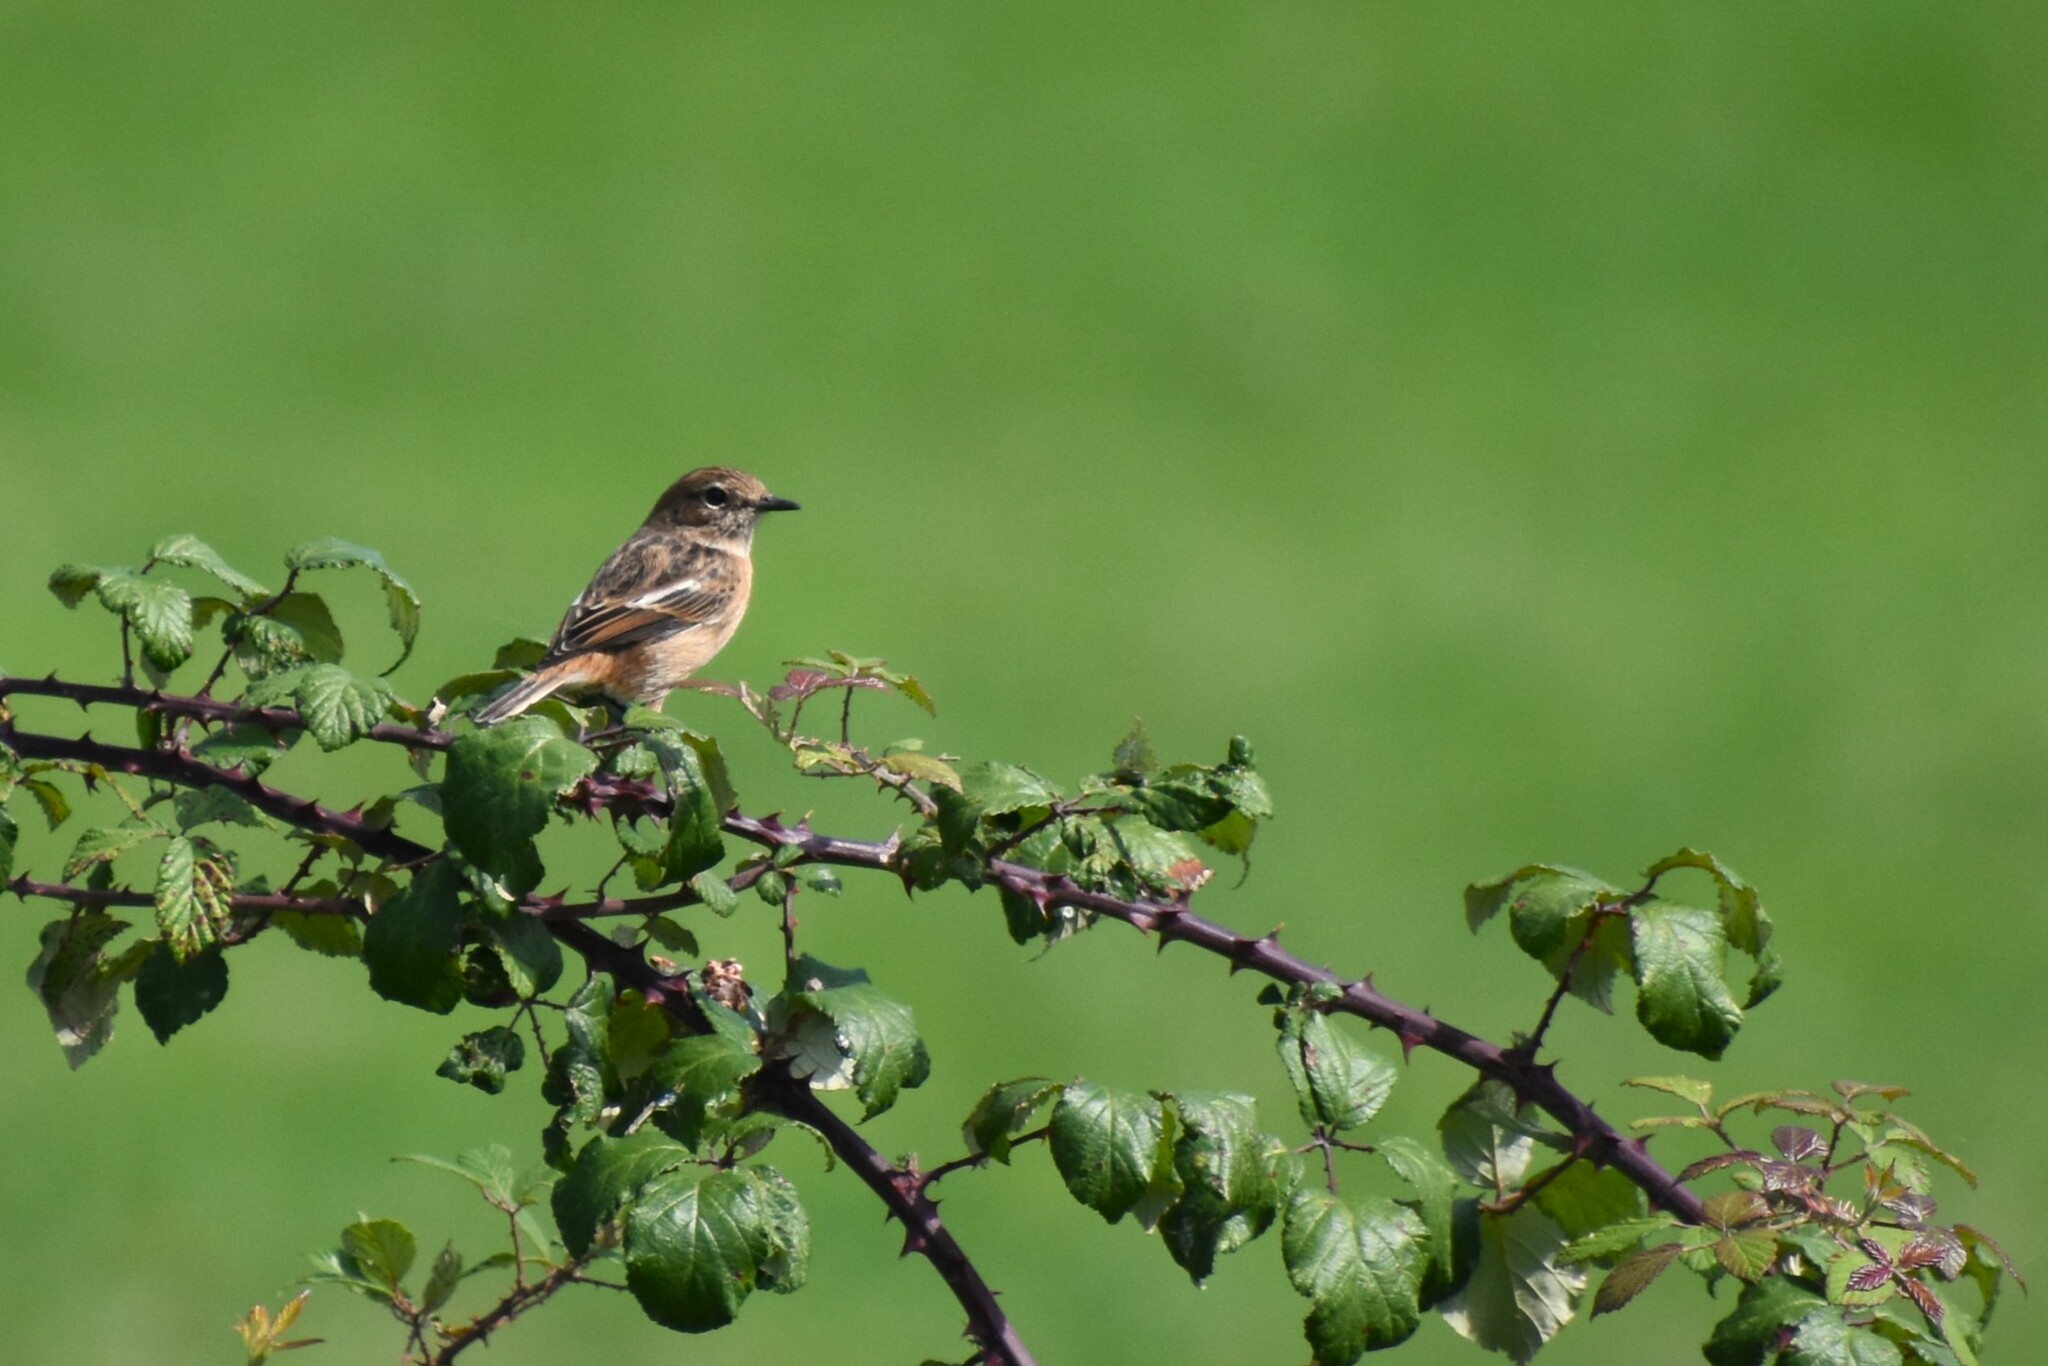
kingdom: Animalia
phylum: Chordata
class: Aves
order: Passeriformes
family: Muscicapidae
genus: Saxicola
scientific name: Saxicola rubicola
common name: European stonechat
